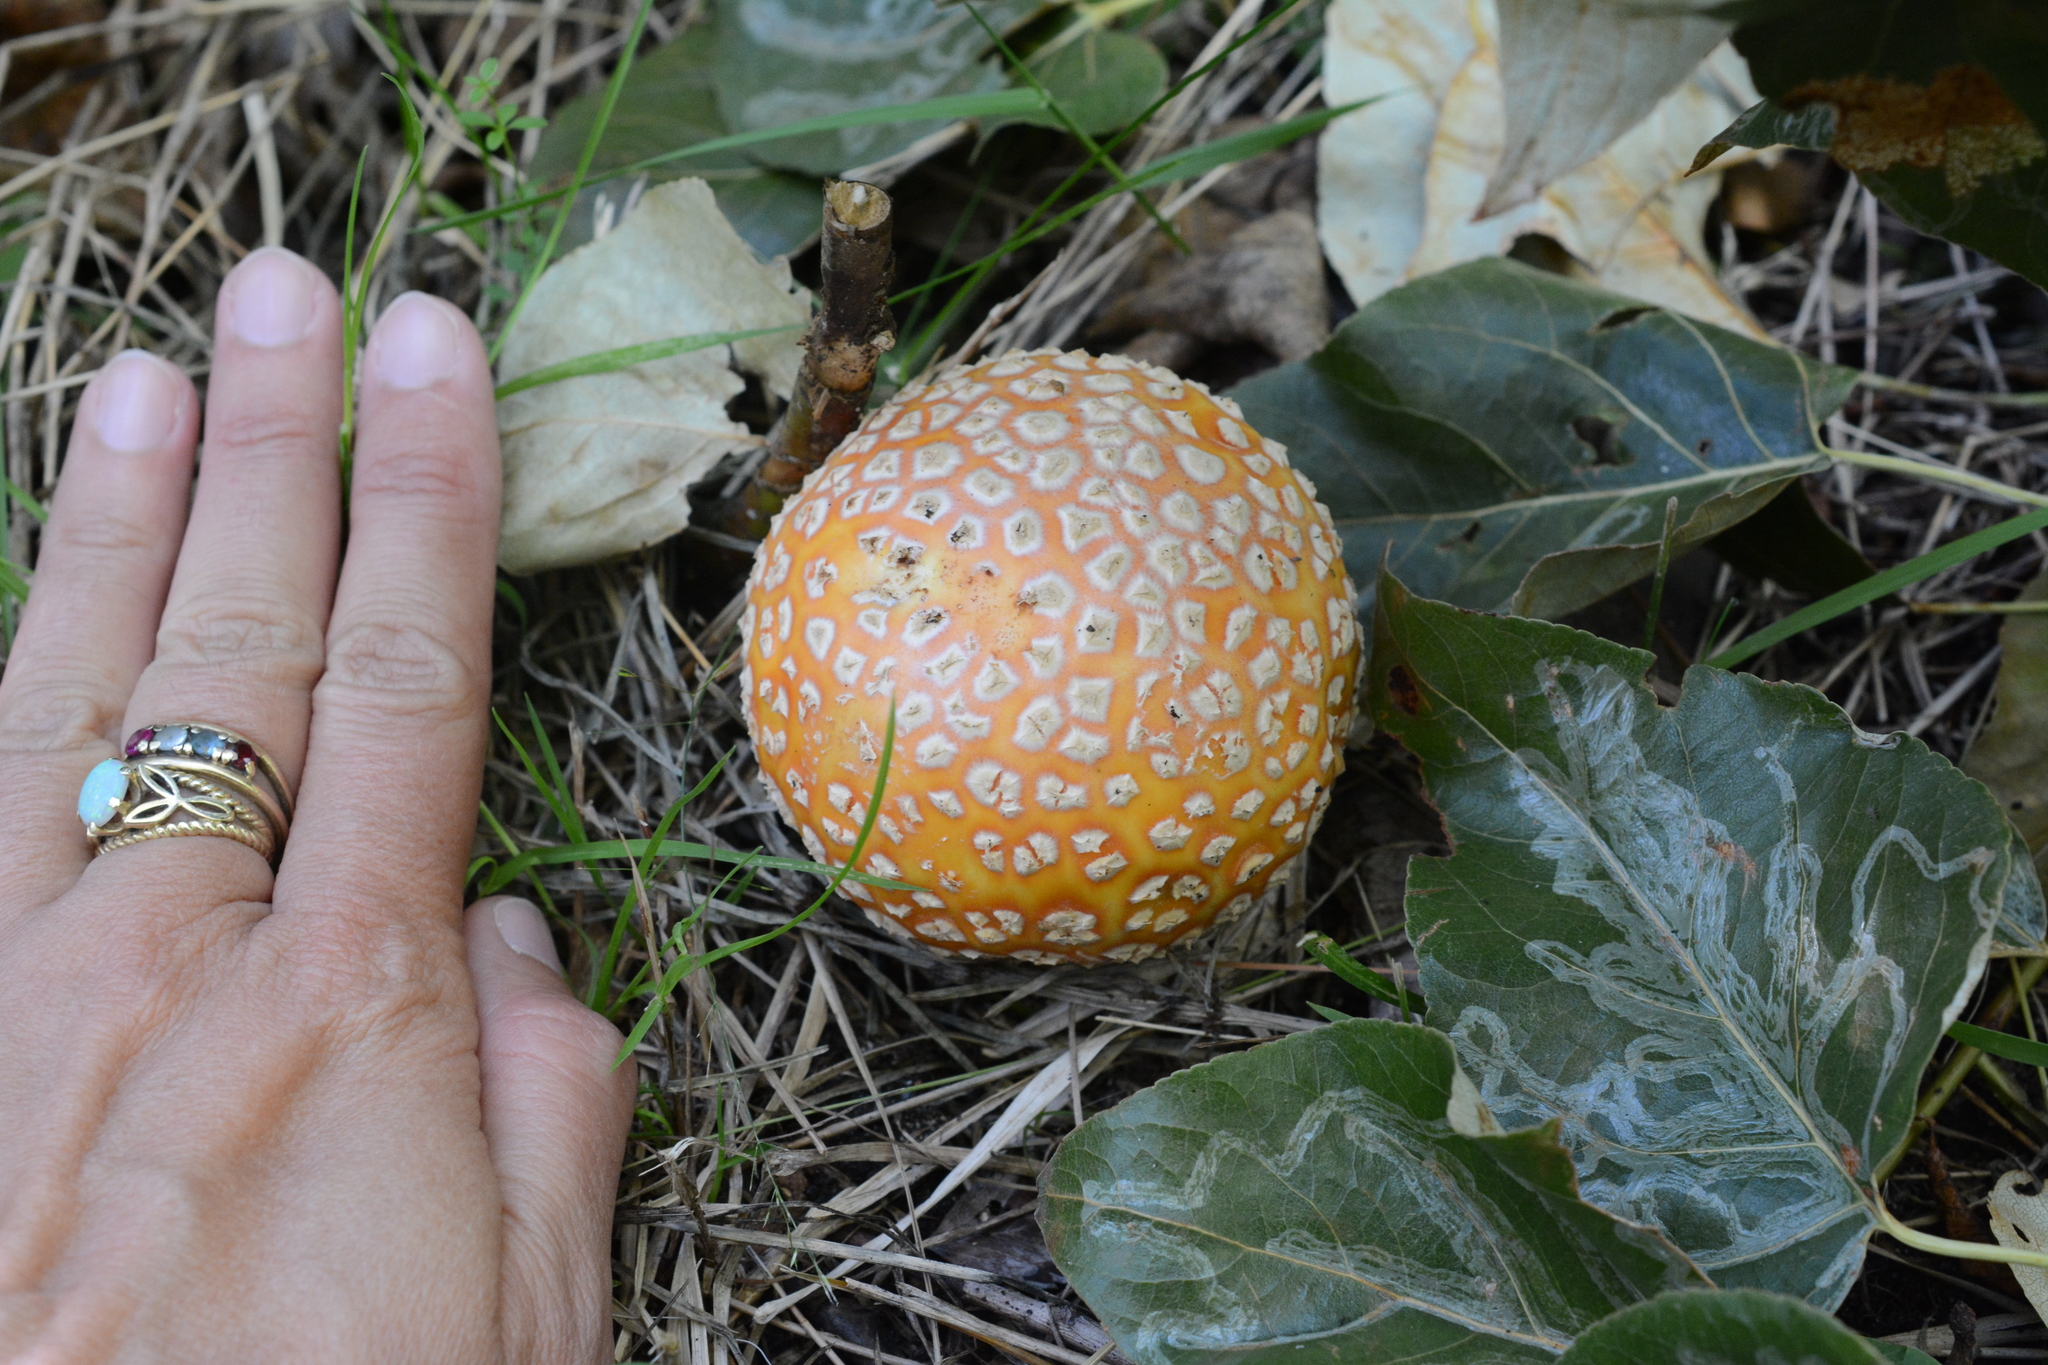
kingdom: Fungi
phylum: Basidiomycota
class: Agaricomycetes
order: Agaricales
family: Amanitaceae
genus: Amanita
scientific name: Amanita muscaria
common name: Fly agaric
